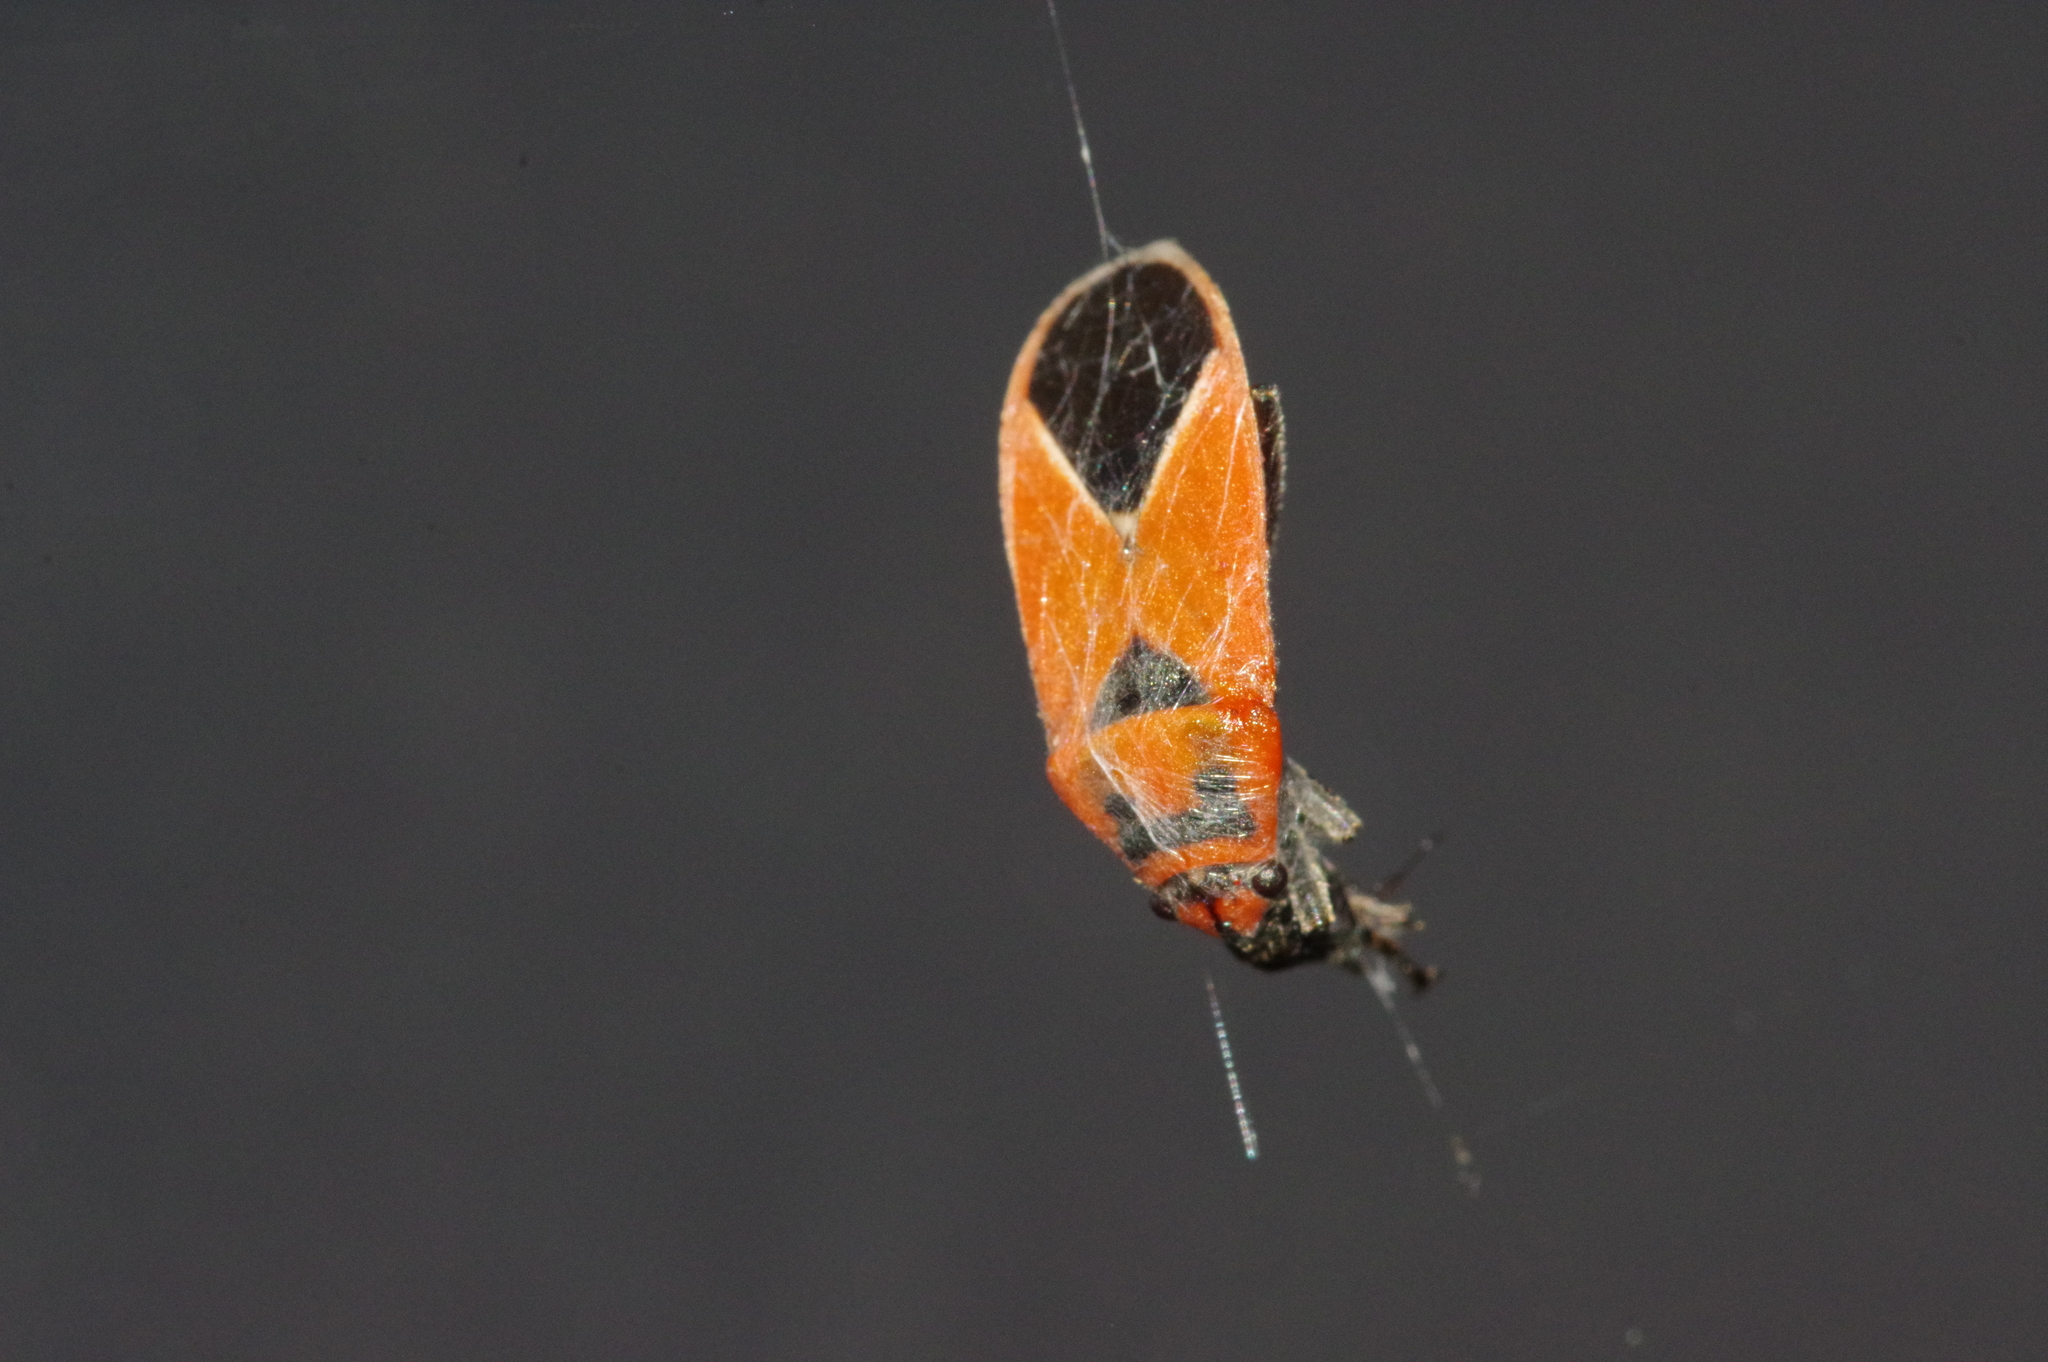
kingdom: Animalia
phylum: Arthropoda
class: Insecta
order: Hemiptera
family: Lygaeidae
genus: Graptostethus
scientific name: Graptostethus servus
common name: Lygaeid bug
